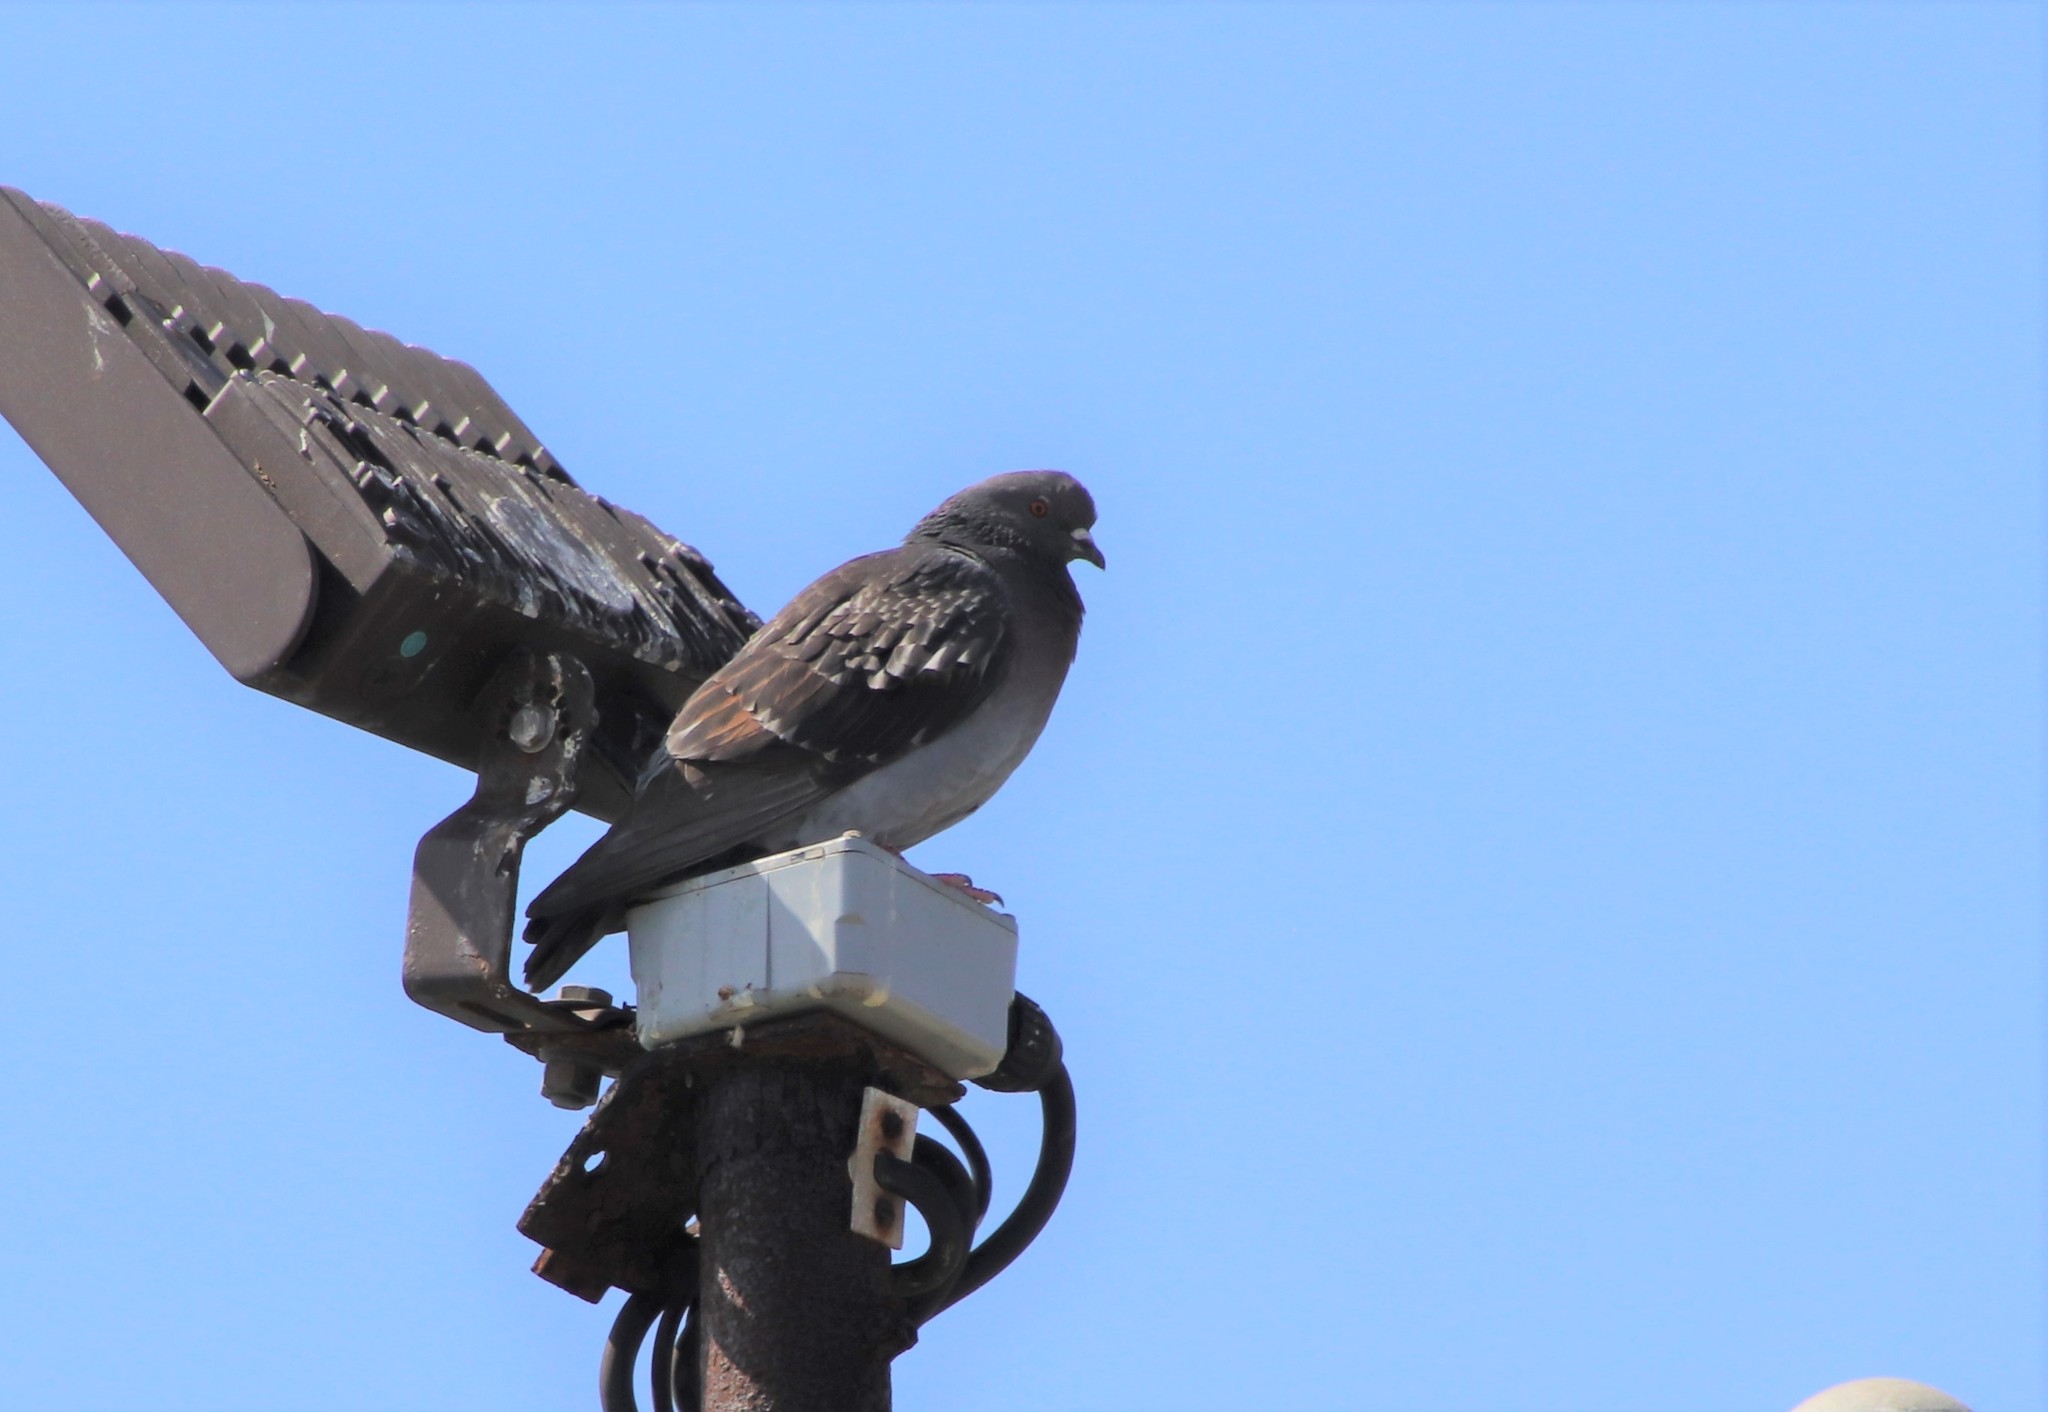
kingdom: Animalia
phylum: Chordata
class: Aves
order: Columbiformes
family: Columbidae
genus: Columba
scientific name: Columba livia
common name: Rock pigeon
